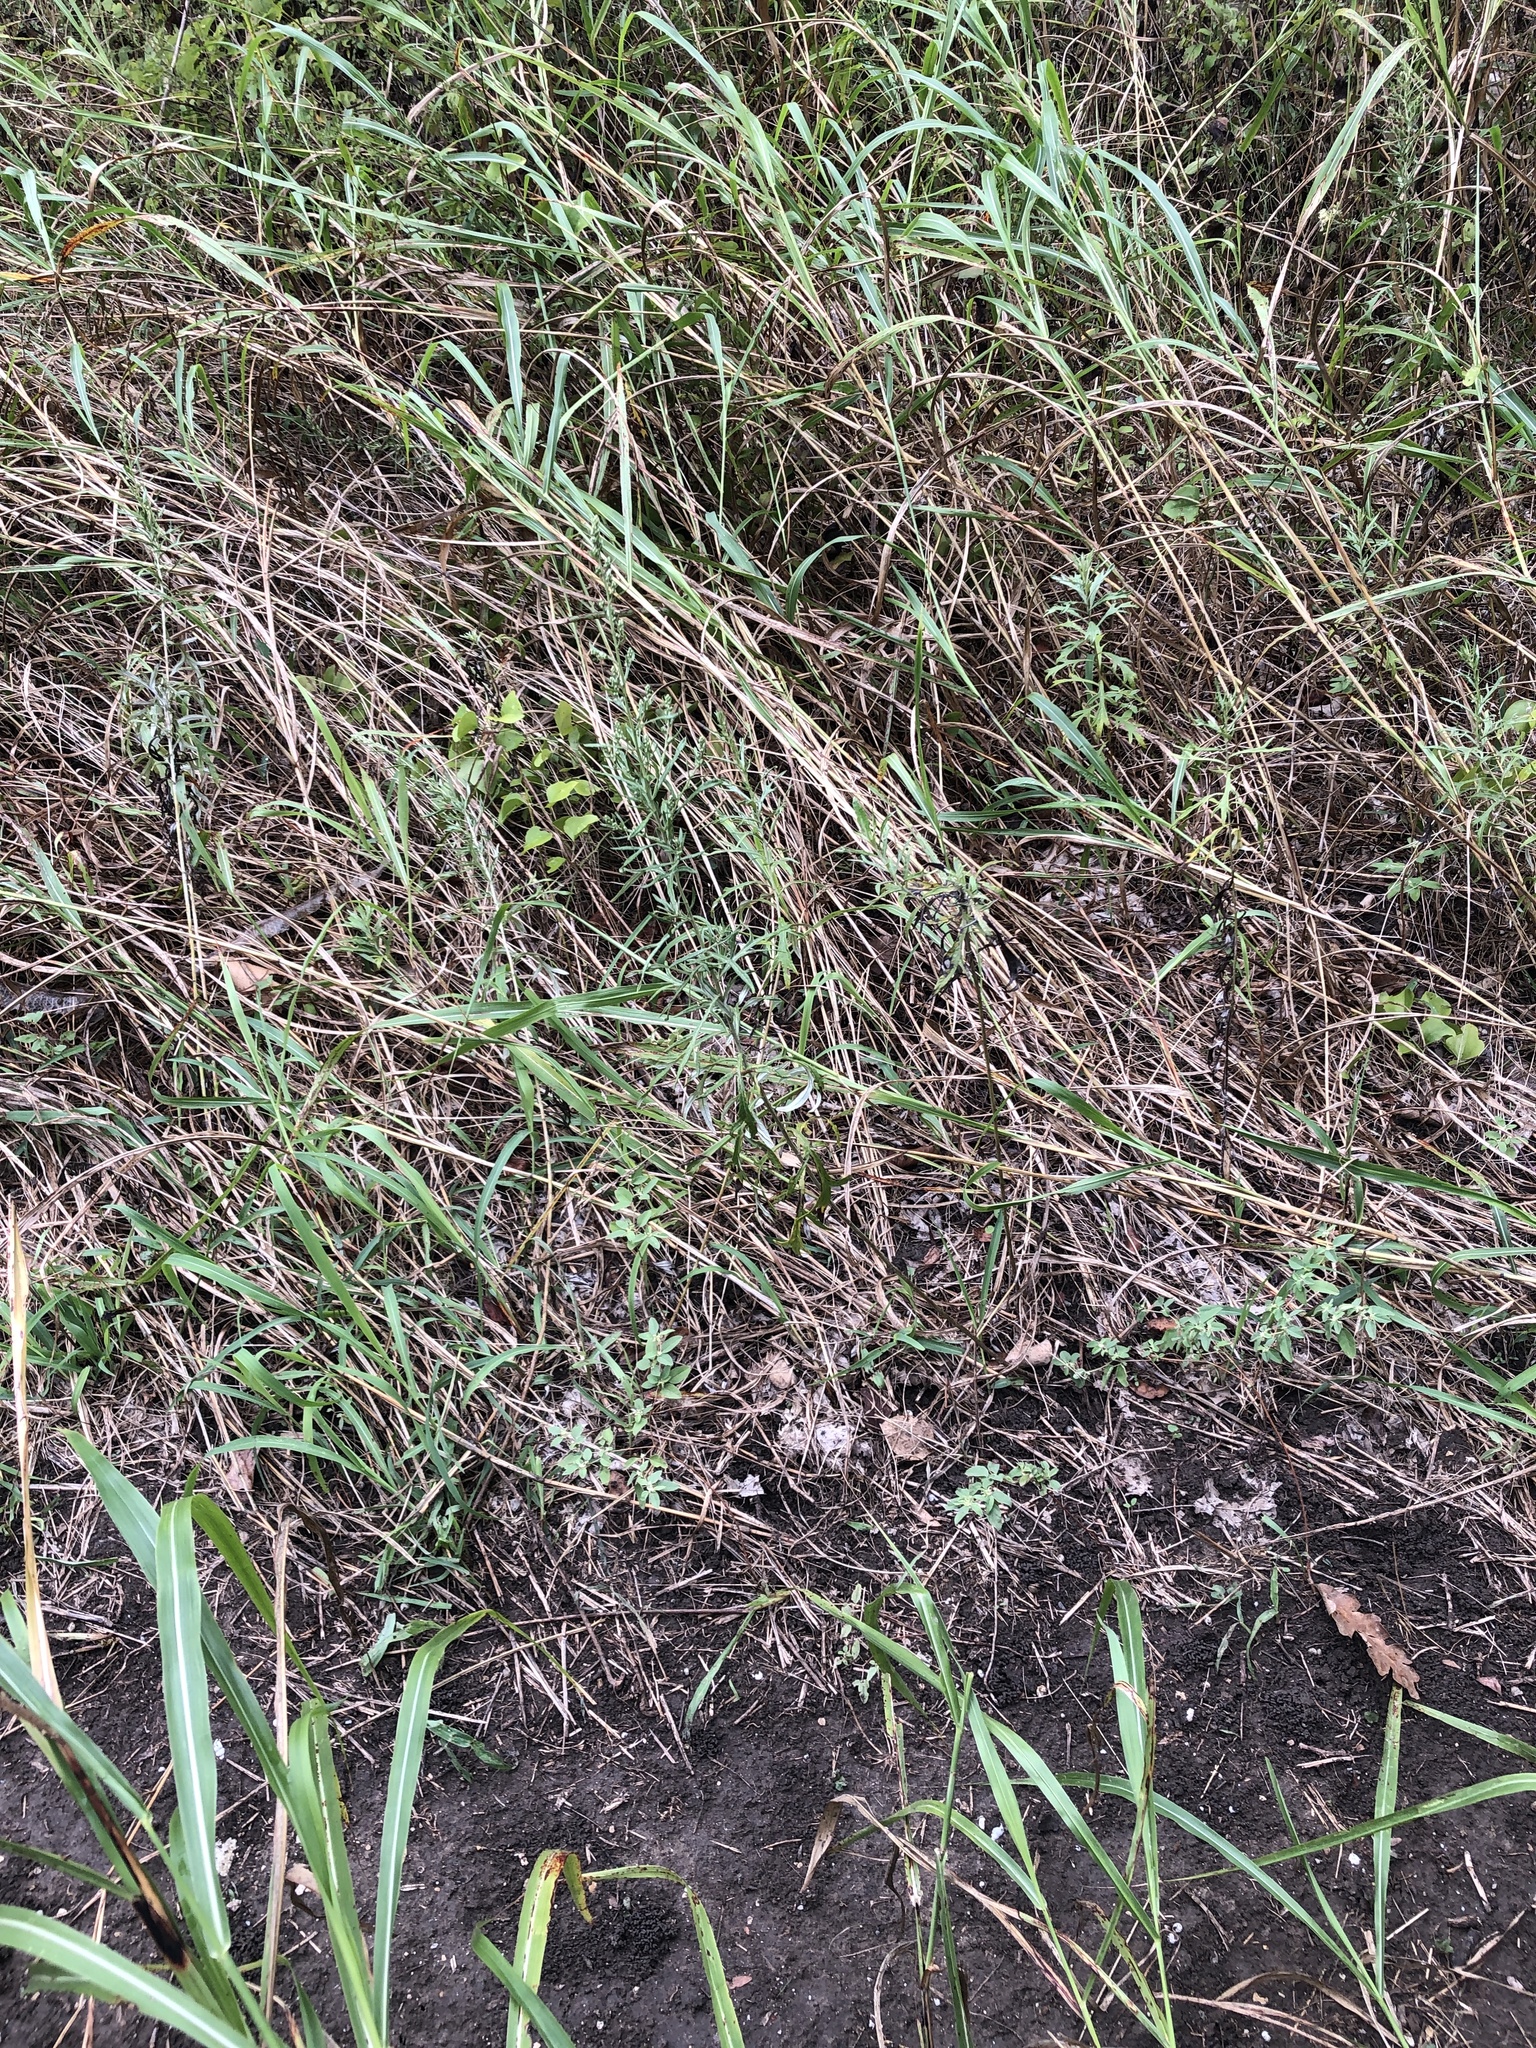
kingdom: Plantae
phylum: Tracheophyta
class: Magnoliopsida
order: Asterales
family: Asteraceae
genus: Artemisia
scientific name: Artemisia ludoviciana
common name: Western mugwort
